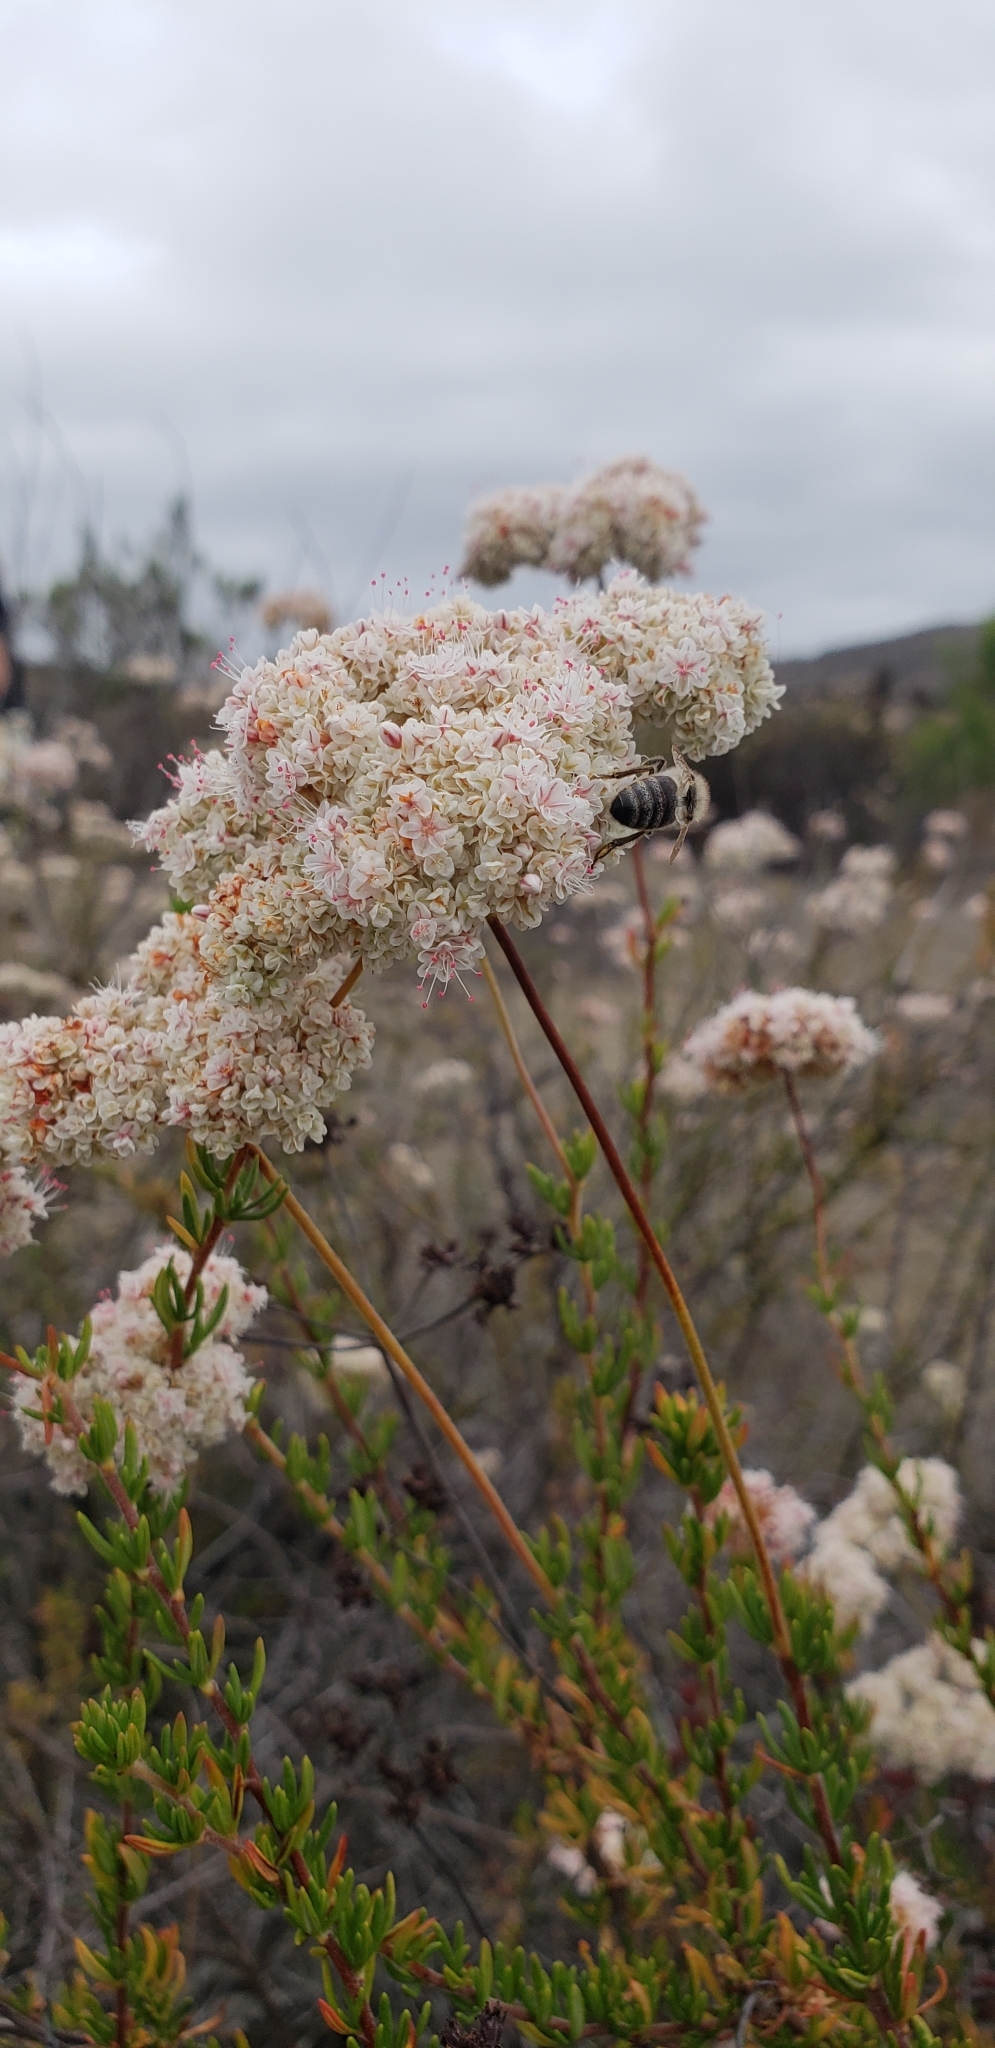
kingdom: Plantae
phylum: Tracheophyta
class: Magnoliopsida
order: Caryophyllales
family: Polygonaceae
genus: Eriogonum
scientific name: Eriogonum fasciculatum
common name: California wild buckwheat
